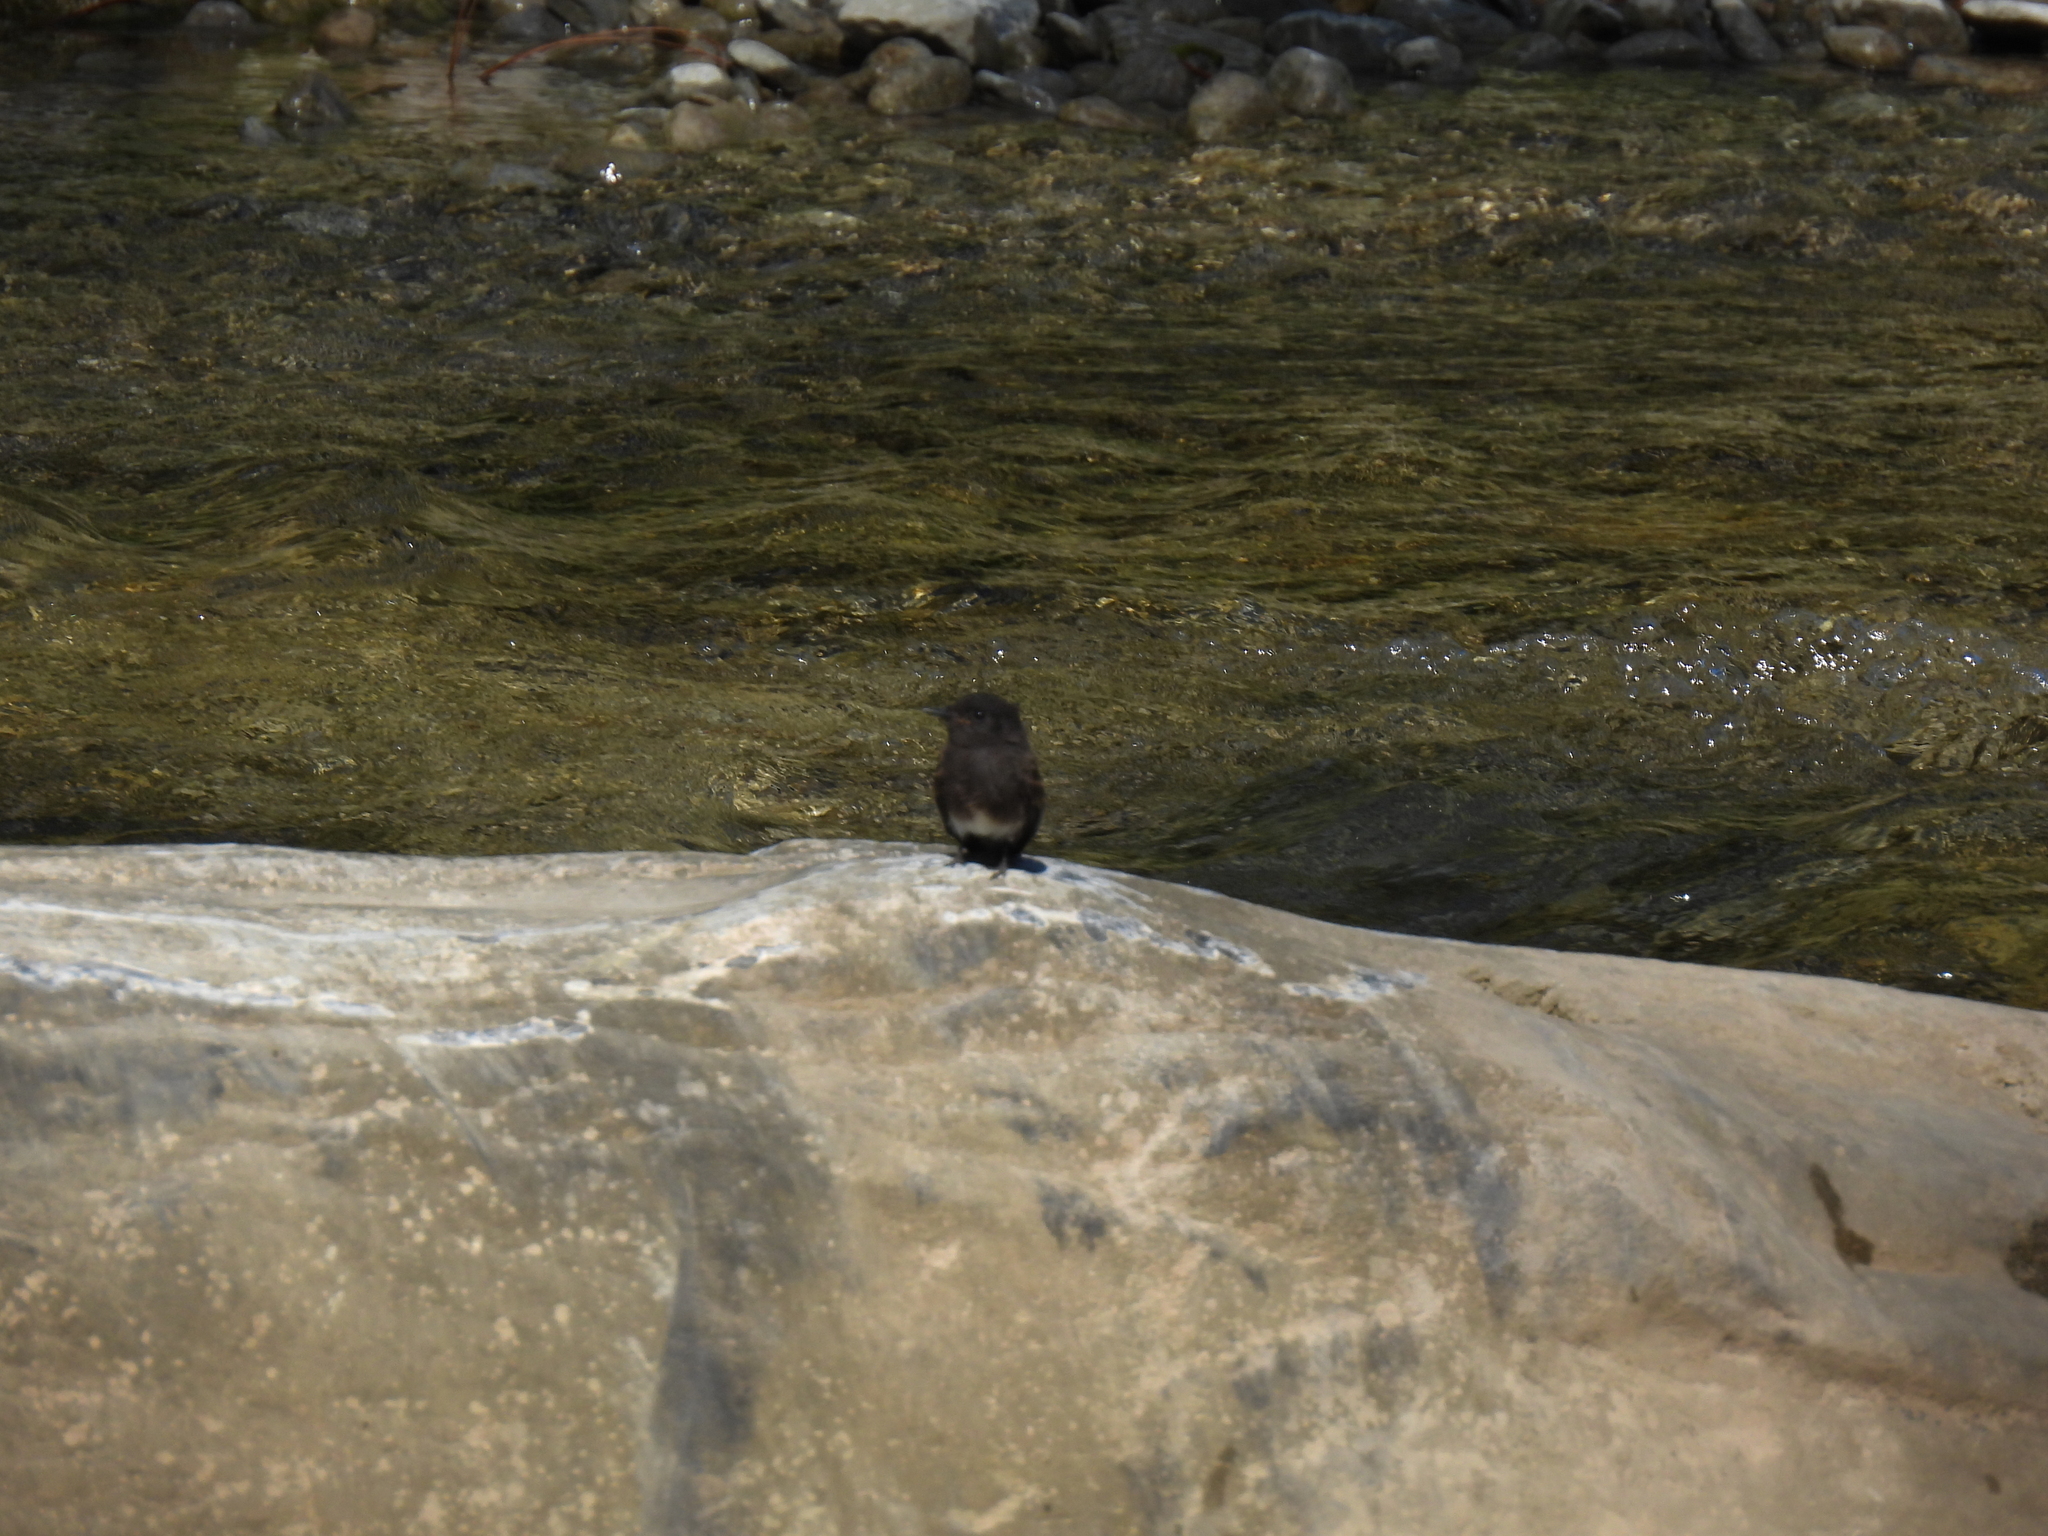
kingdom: Animalia
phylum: Chordata
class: Aves
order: Passeriformes
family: Tyrannidae
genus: Sayornis
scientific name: Sayornis nigricans
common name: Black phoebe
